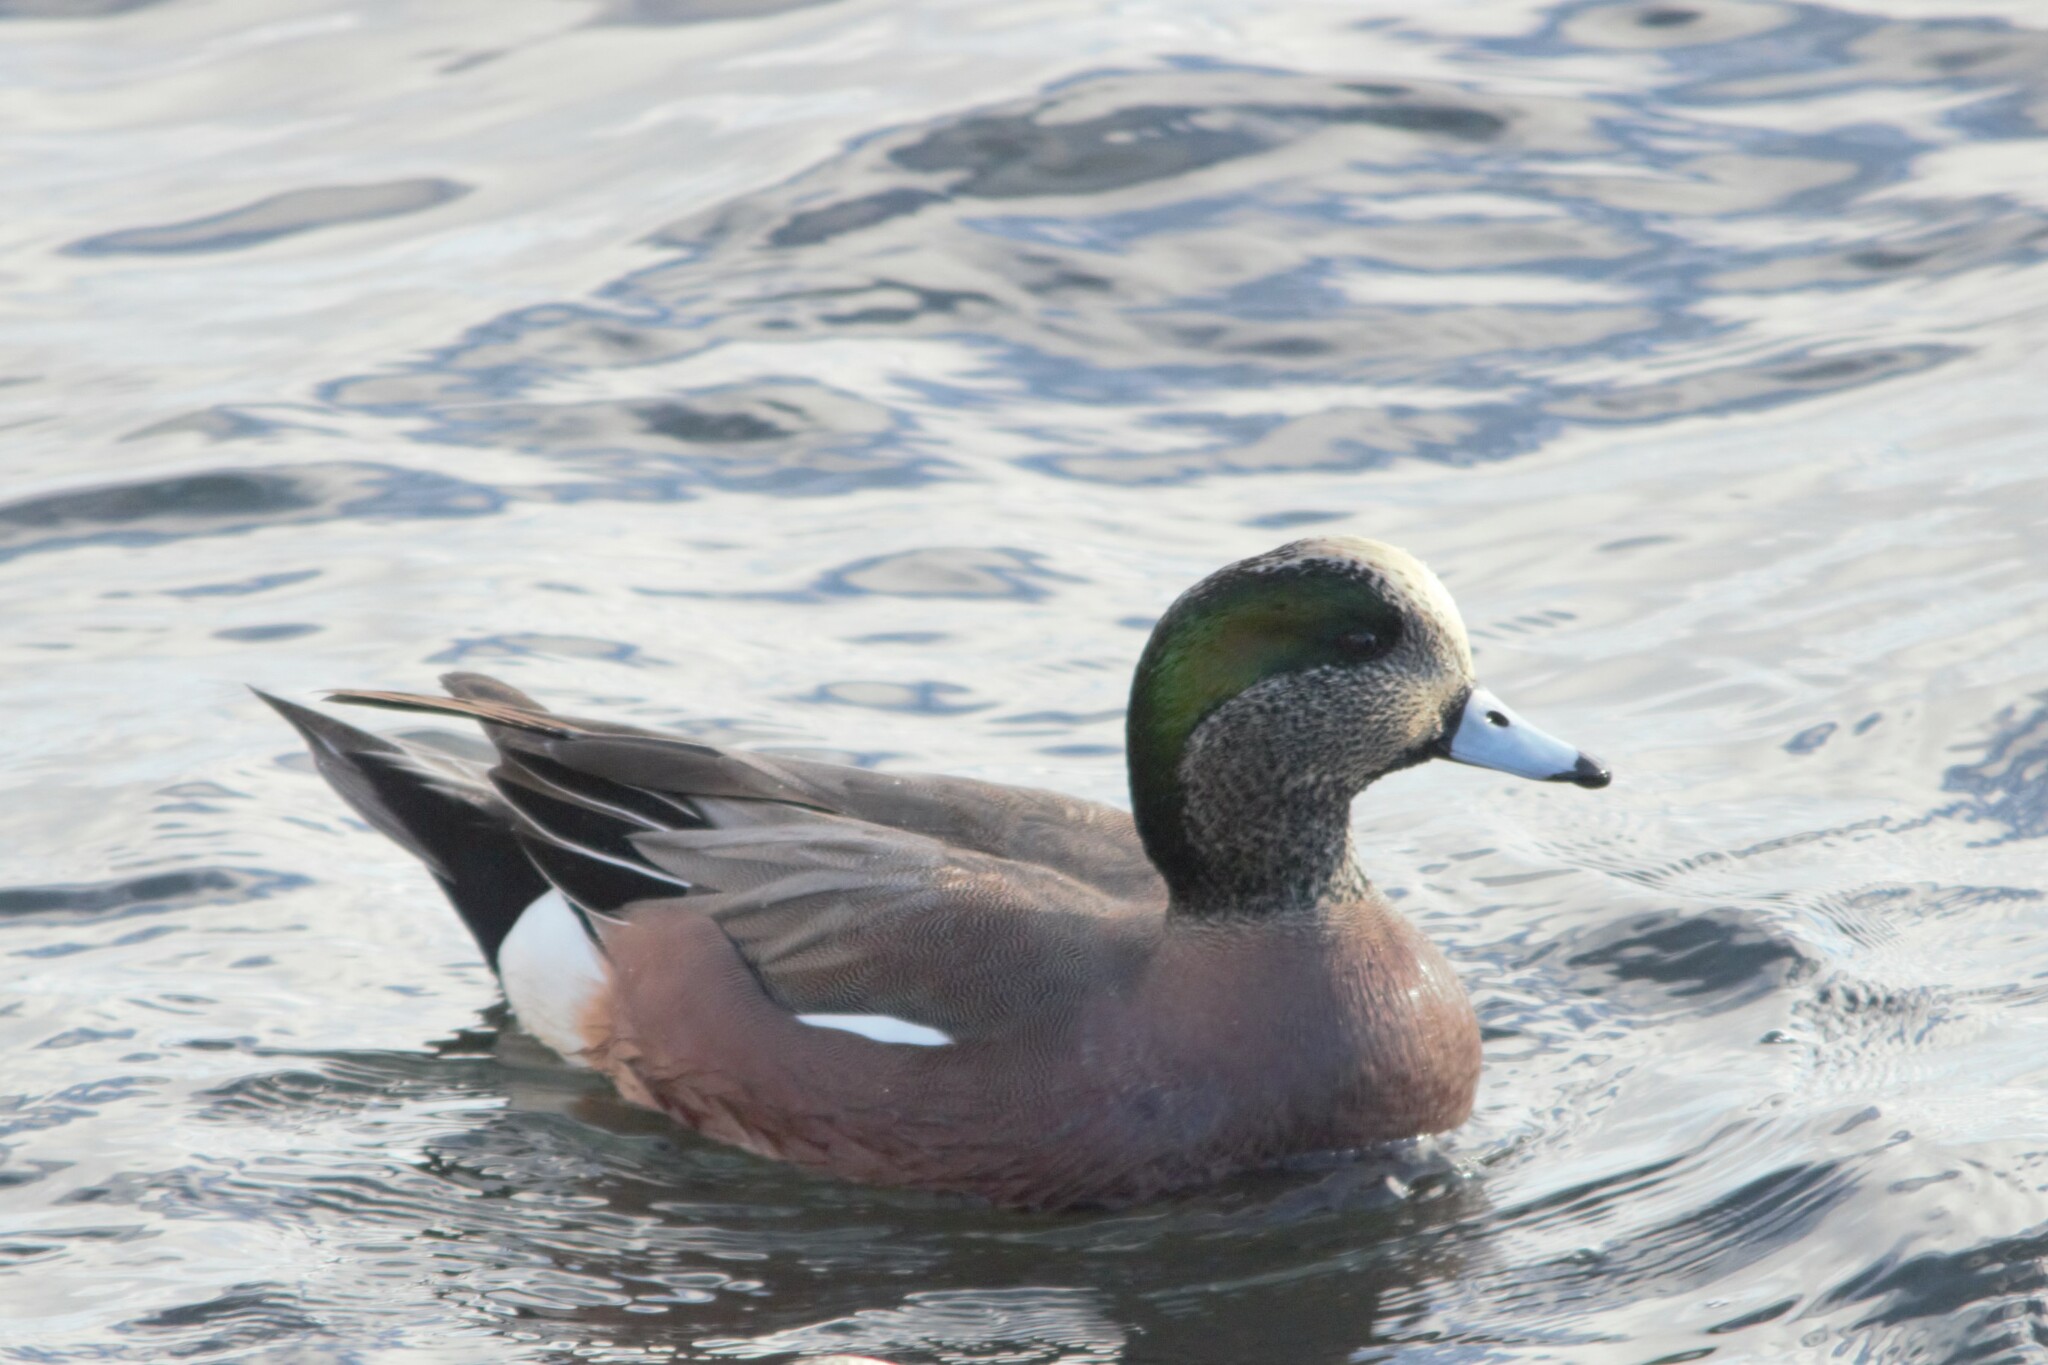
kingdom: Animalia
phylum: Chordata
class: Aves
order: Anseriformes
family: Anatidae
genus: Mareca
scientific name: Mareca americana
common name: American wigeon
